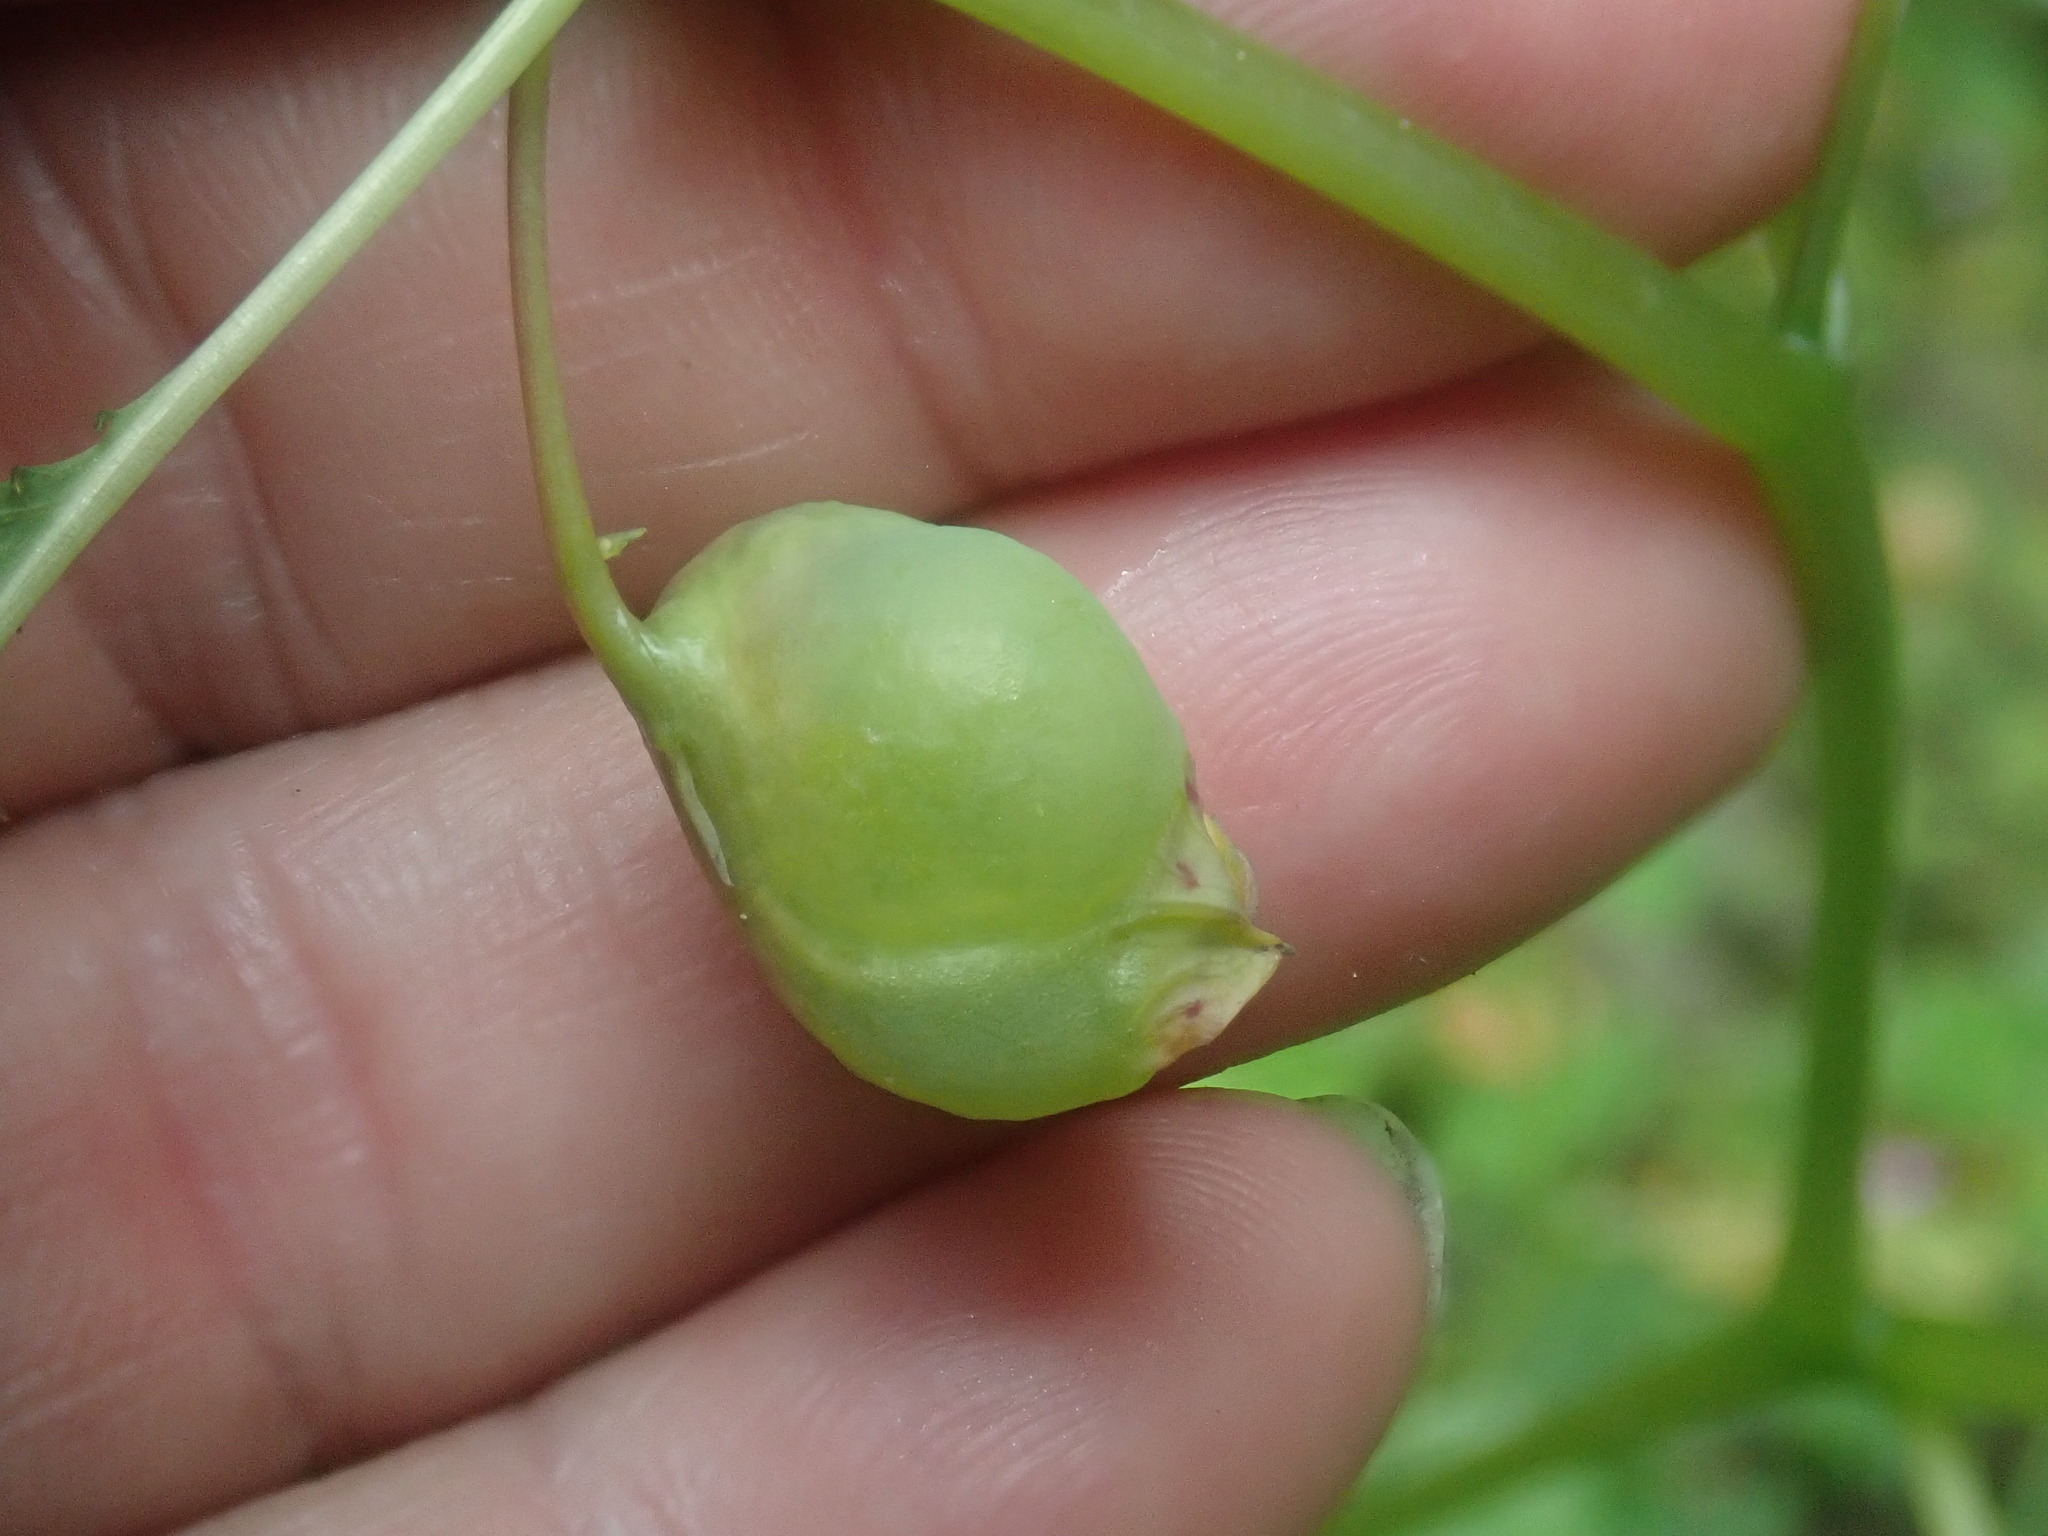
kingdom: Animalia
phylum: Arthropoda
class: Insecta
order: Diptera
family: Cecidomyiidae
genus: Schizomyia
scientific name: Schizomyia impatientis
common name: Jewelweed gall midge
